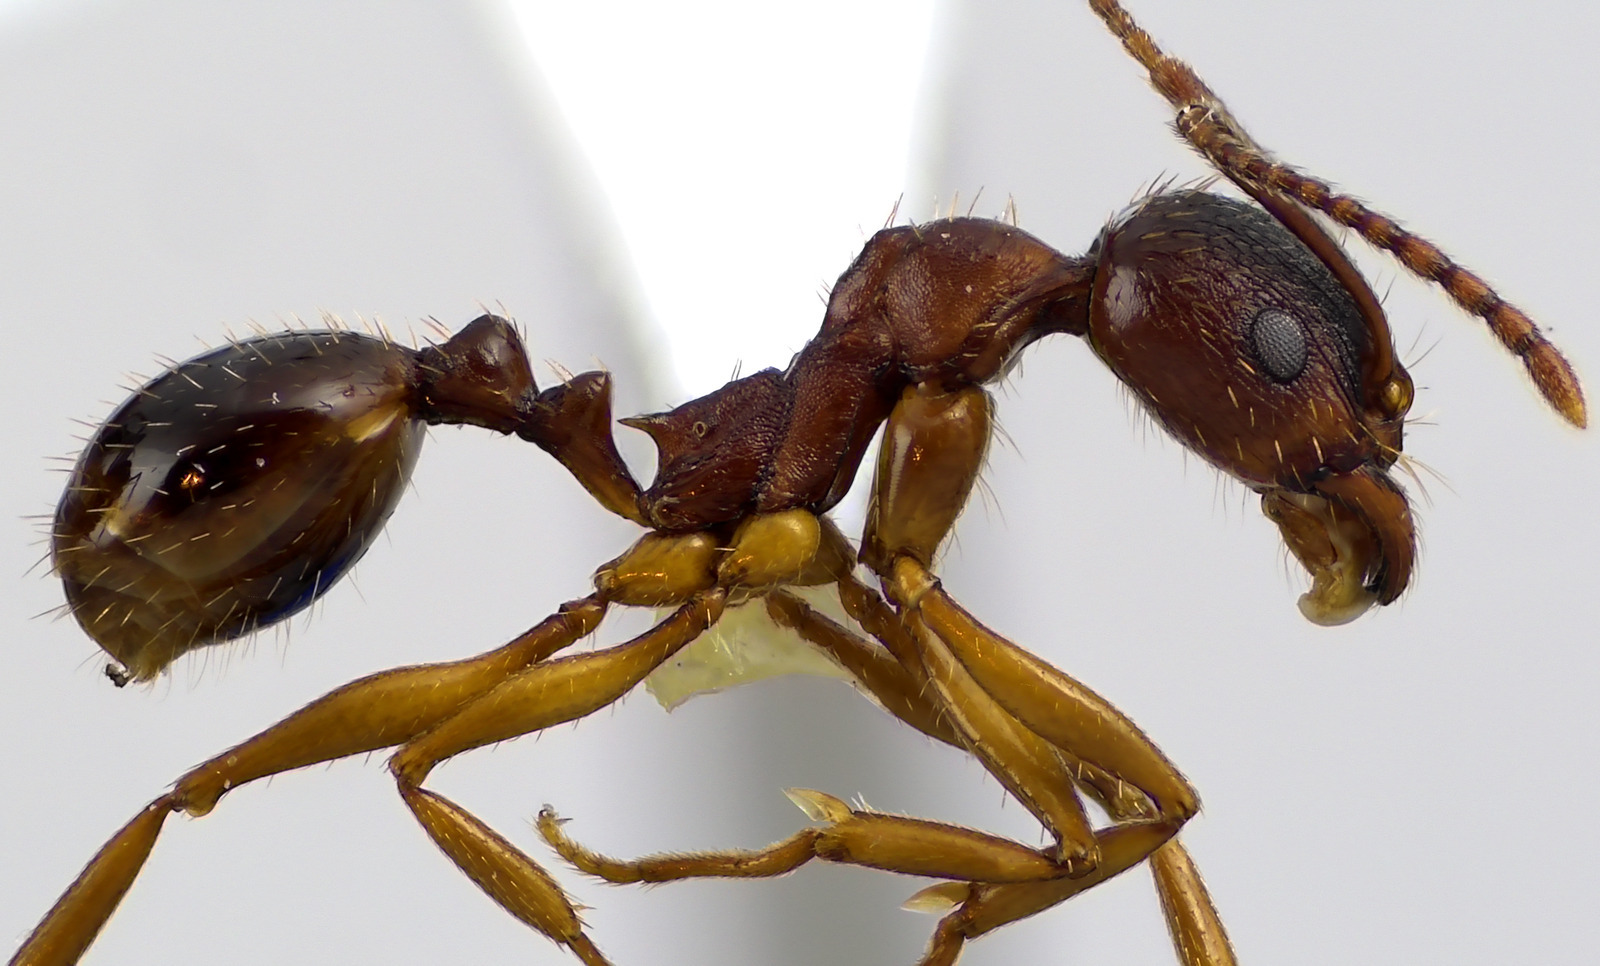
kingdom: Animalia
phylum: Arthropoda
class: Insecta
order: Hymenoptera
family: Formicidae
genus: Aphaenogaster
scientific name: Aphaenogaster rudis
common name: Winnow ant
